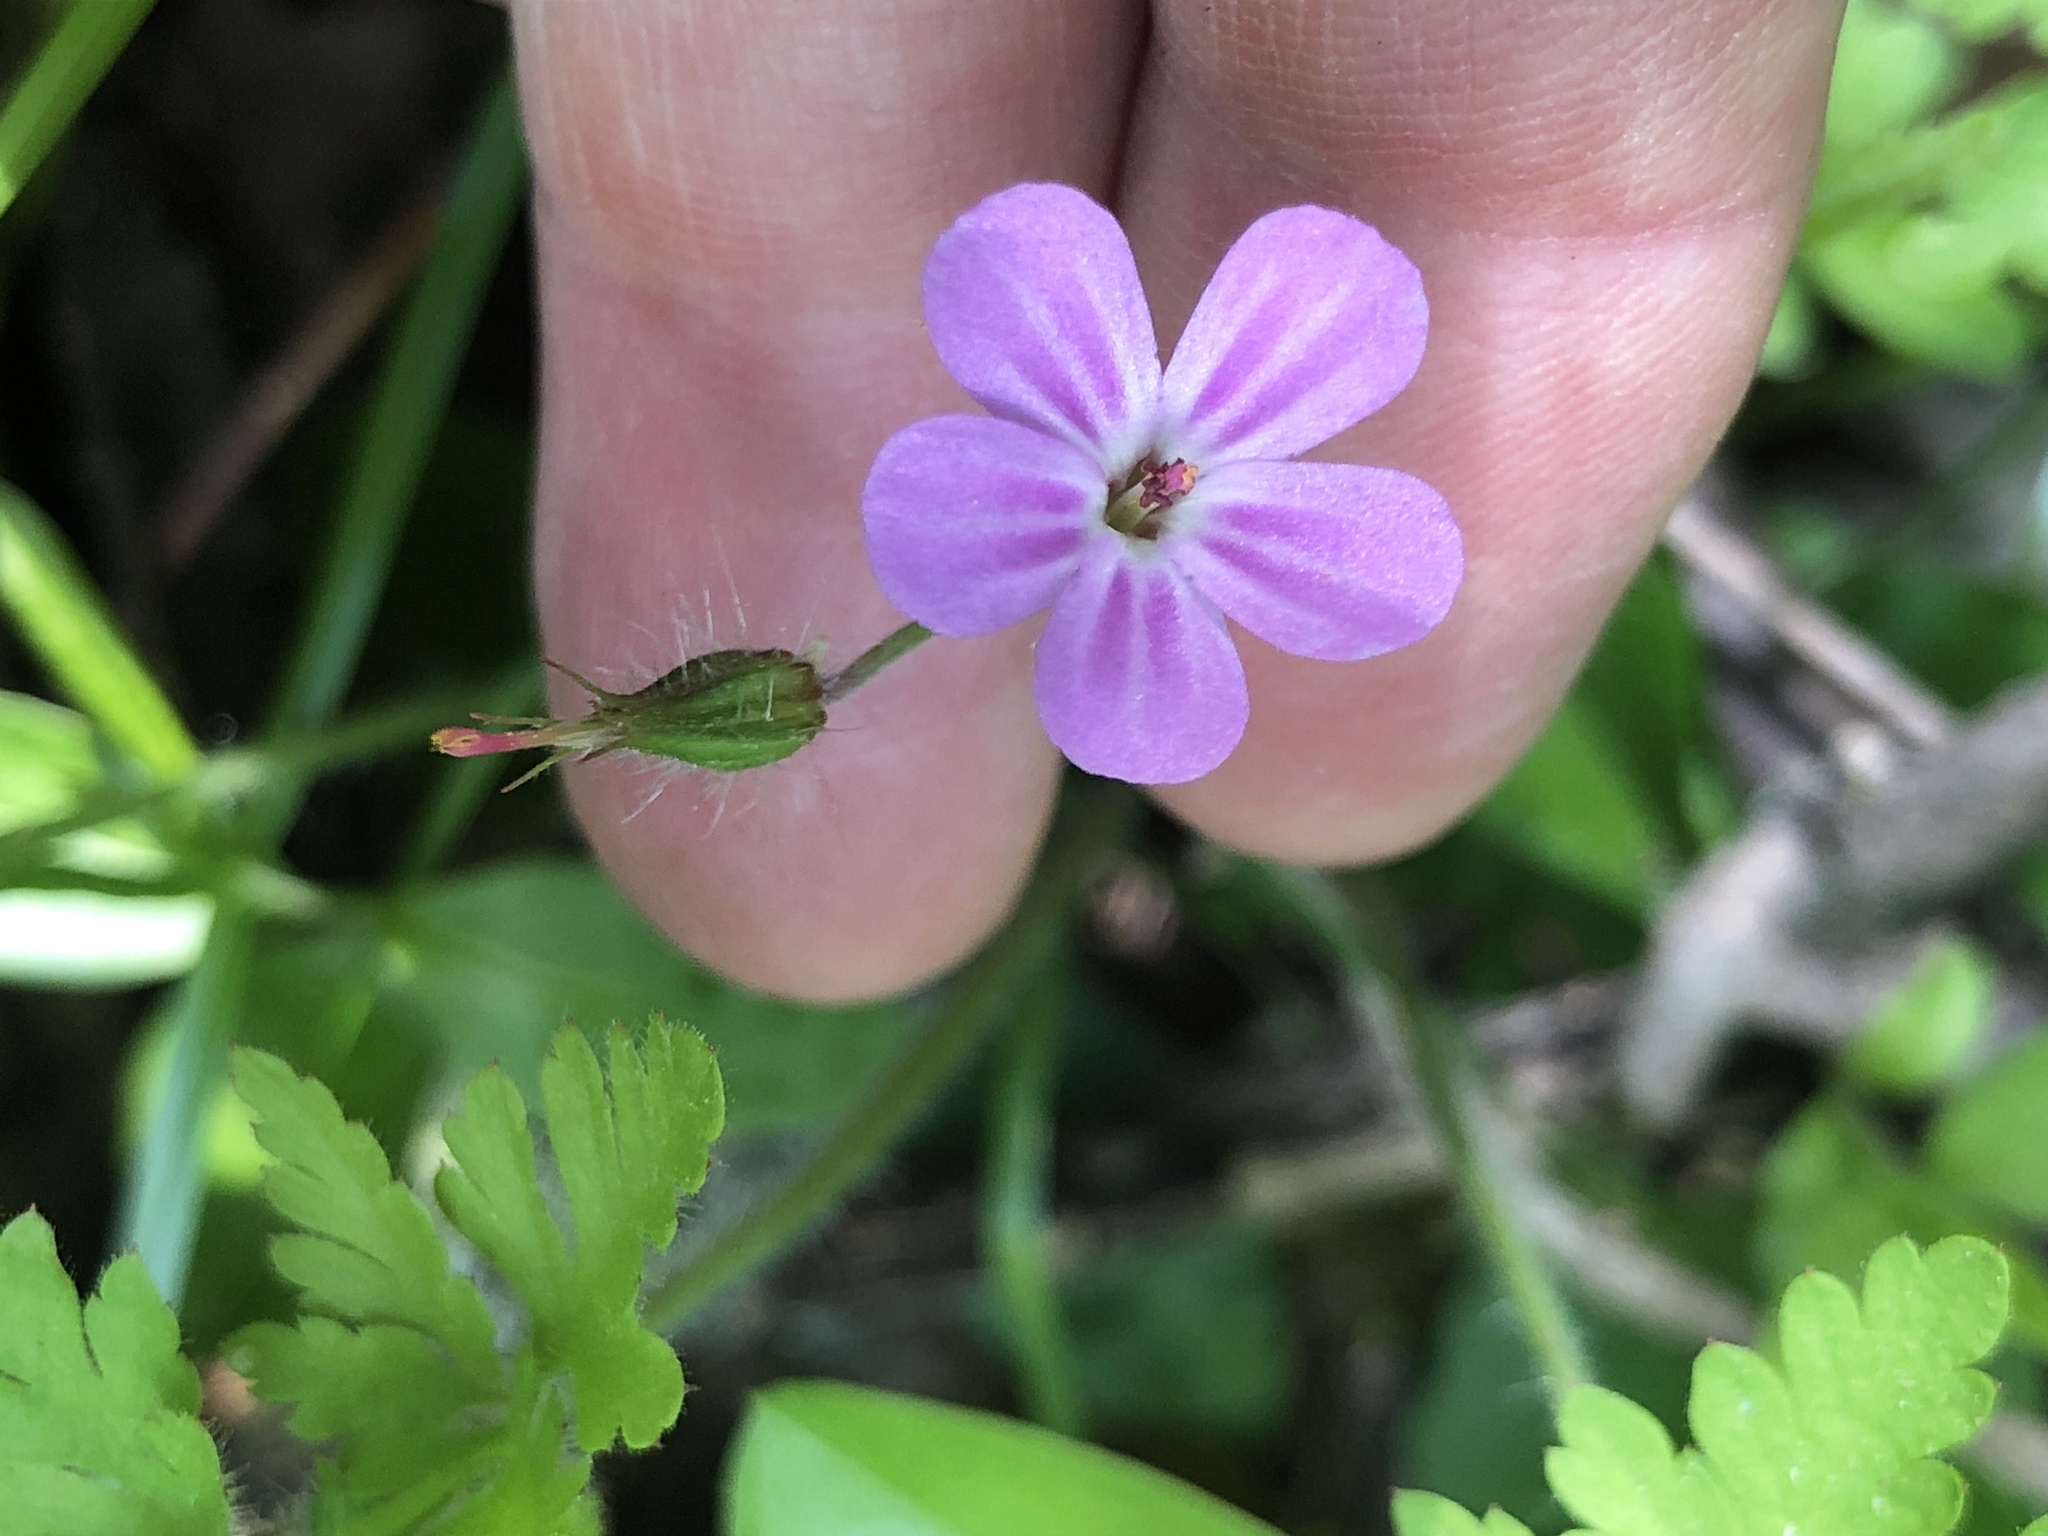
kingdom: Plantae
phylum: Tracheophyta
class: Magnoliopsida
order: Geraniales
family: Geraniaceae
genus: Geranium
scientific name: Geranium robertianum
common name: Herb-robert
